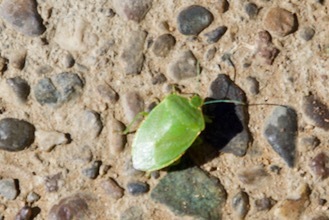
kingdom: Animalia
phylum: Arthropoda
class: Insecta
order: Hemiptera
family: Pentatomidae
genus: Chinavia
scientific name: Chinavia hilaris
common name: Green stink bug
